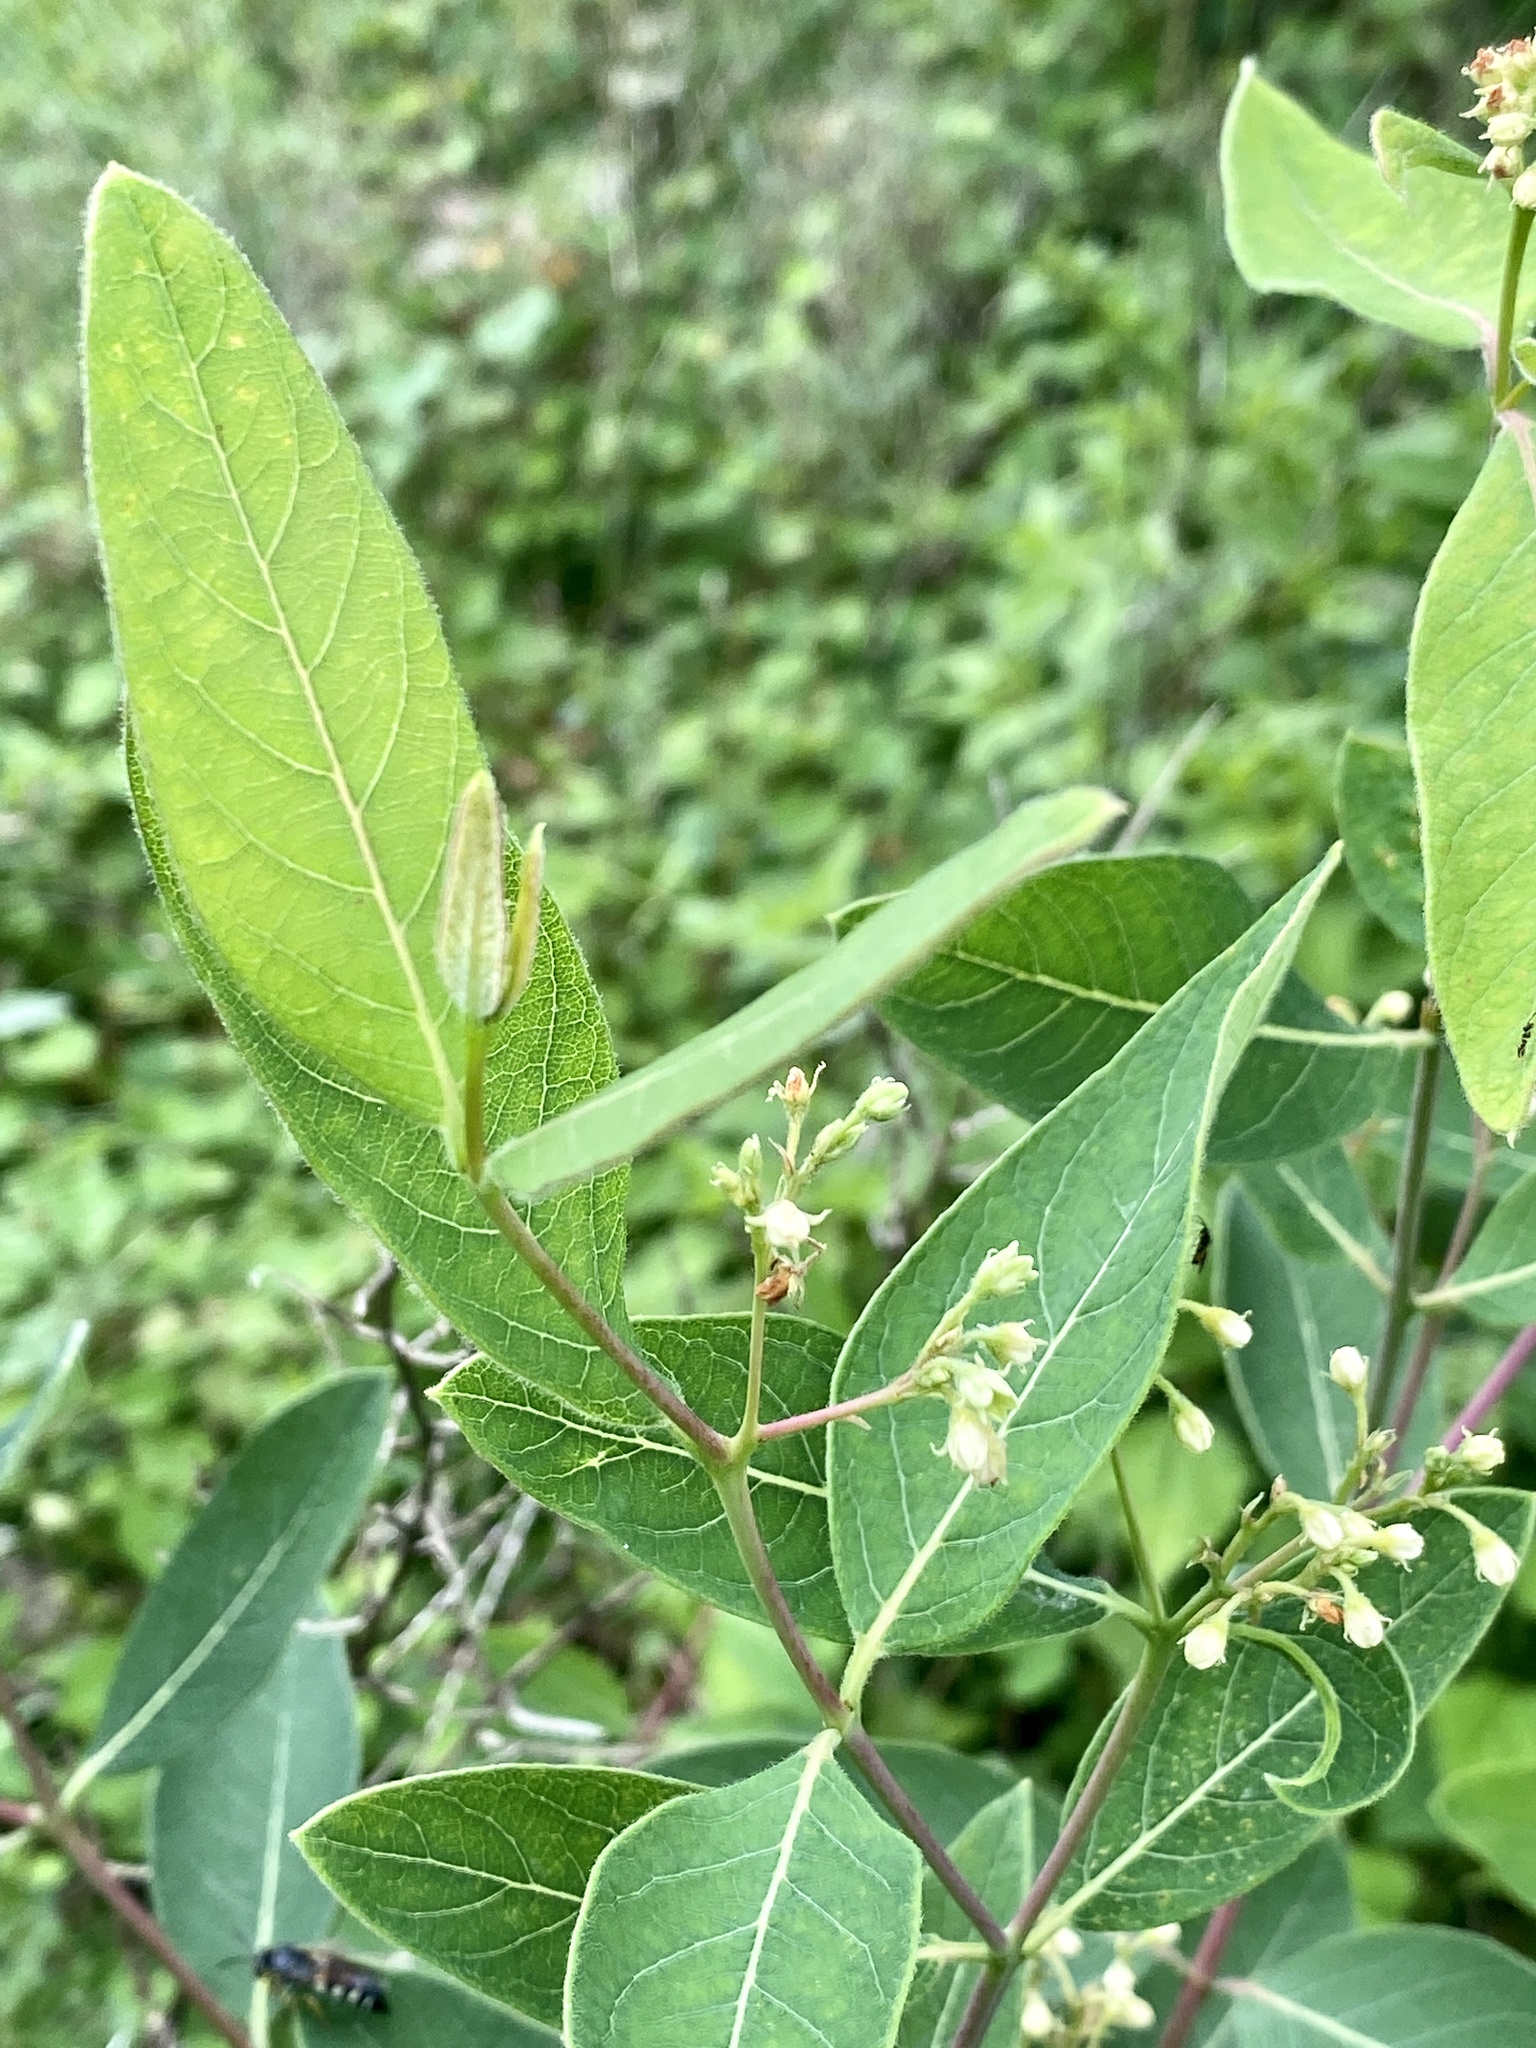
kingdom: Plantae
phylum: Tracheophyta
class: Magnoliopsida
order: Gentianales
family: Apocynaceae
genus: Apocynum
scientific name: Apocynum cannabinum
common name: Hemp dogbane
